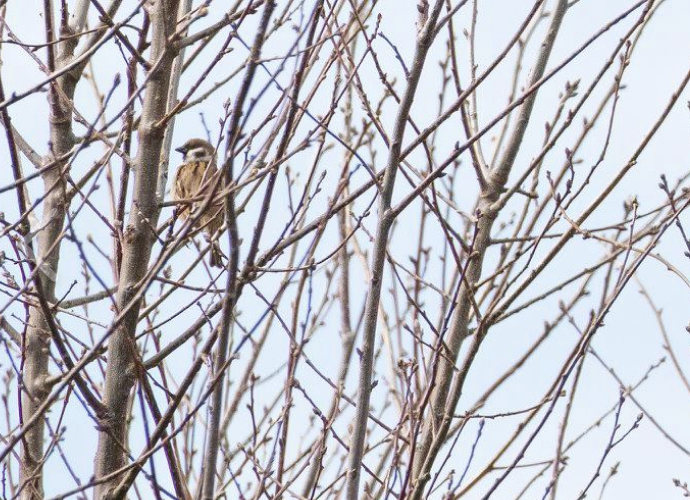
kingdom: Animalia
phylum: Chordata
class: Aves
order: Passeriformes
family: Passeridae
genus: Passer
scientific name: Passer montanus
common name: Eurasian tree sparrow
